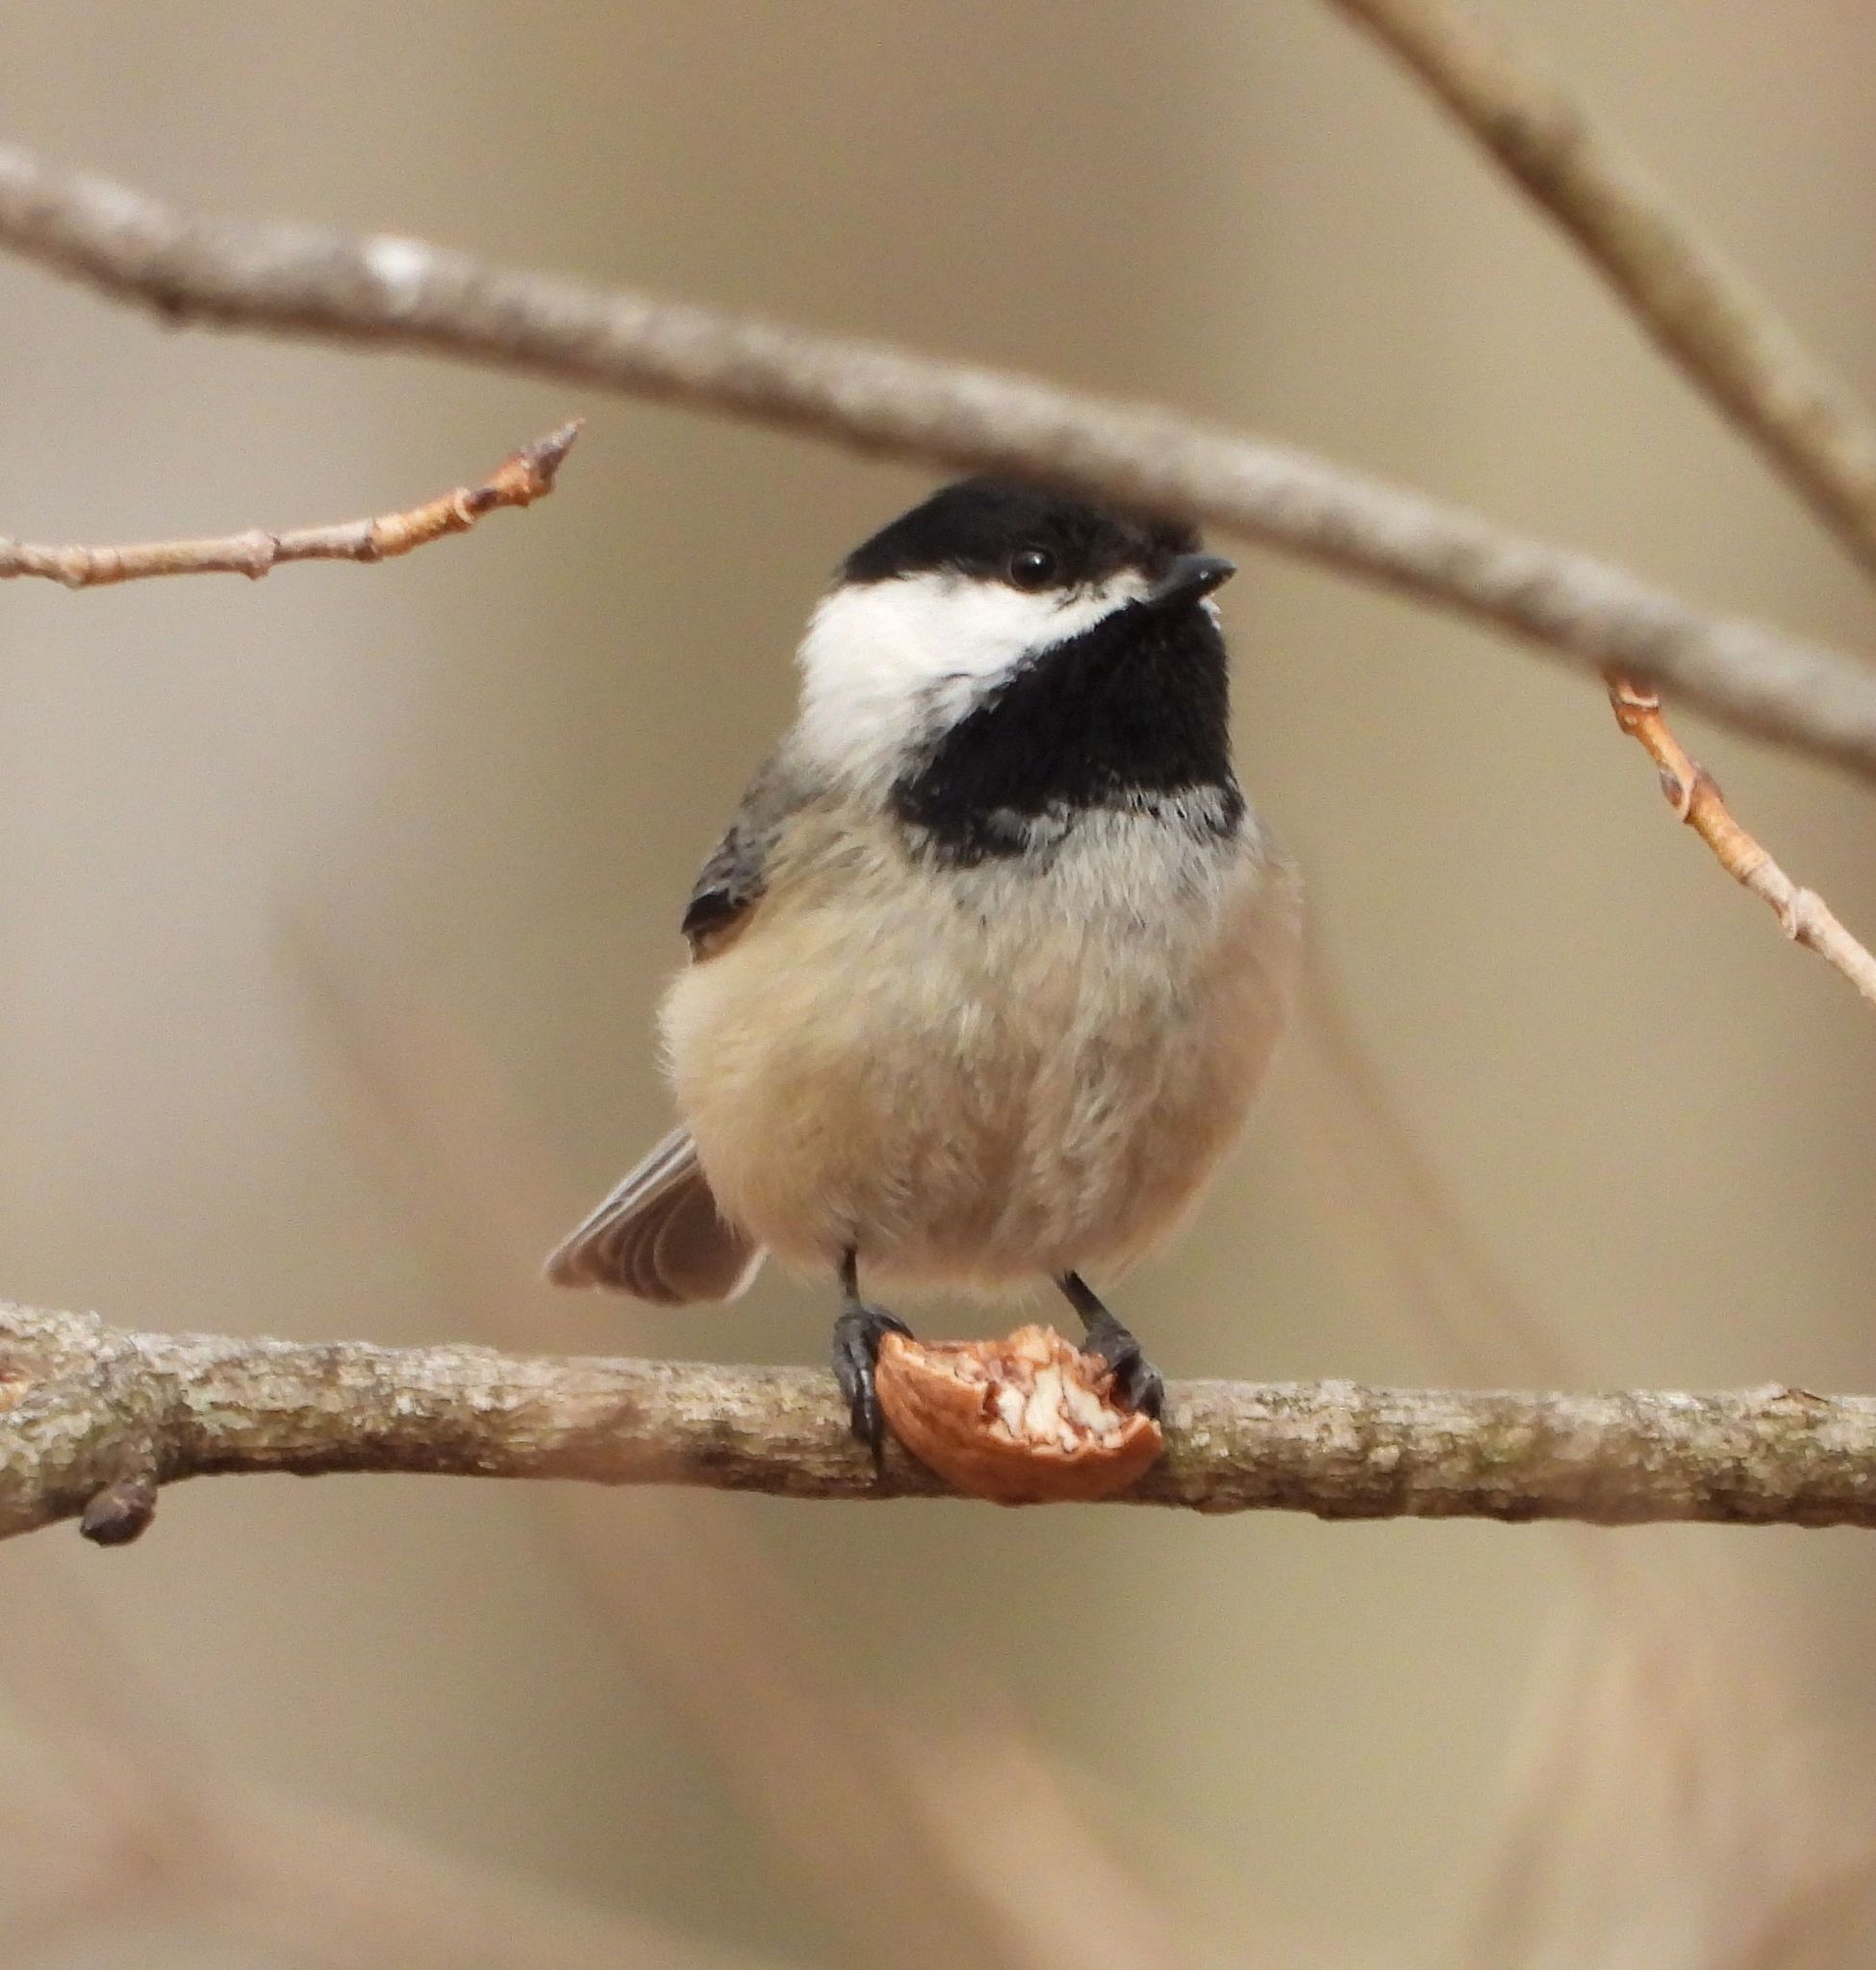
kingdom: Animalia
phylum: Chordata
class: Aves
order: Passeriformes
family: Paridae
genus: Poecile
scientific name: Poecile atricapillus
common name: Black-capped chickadee
